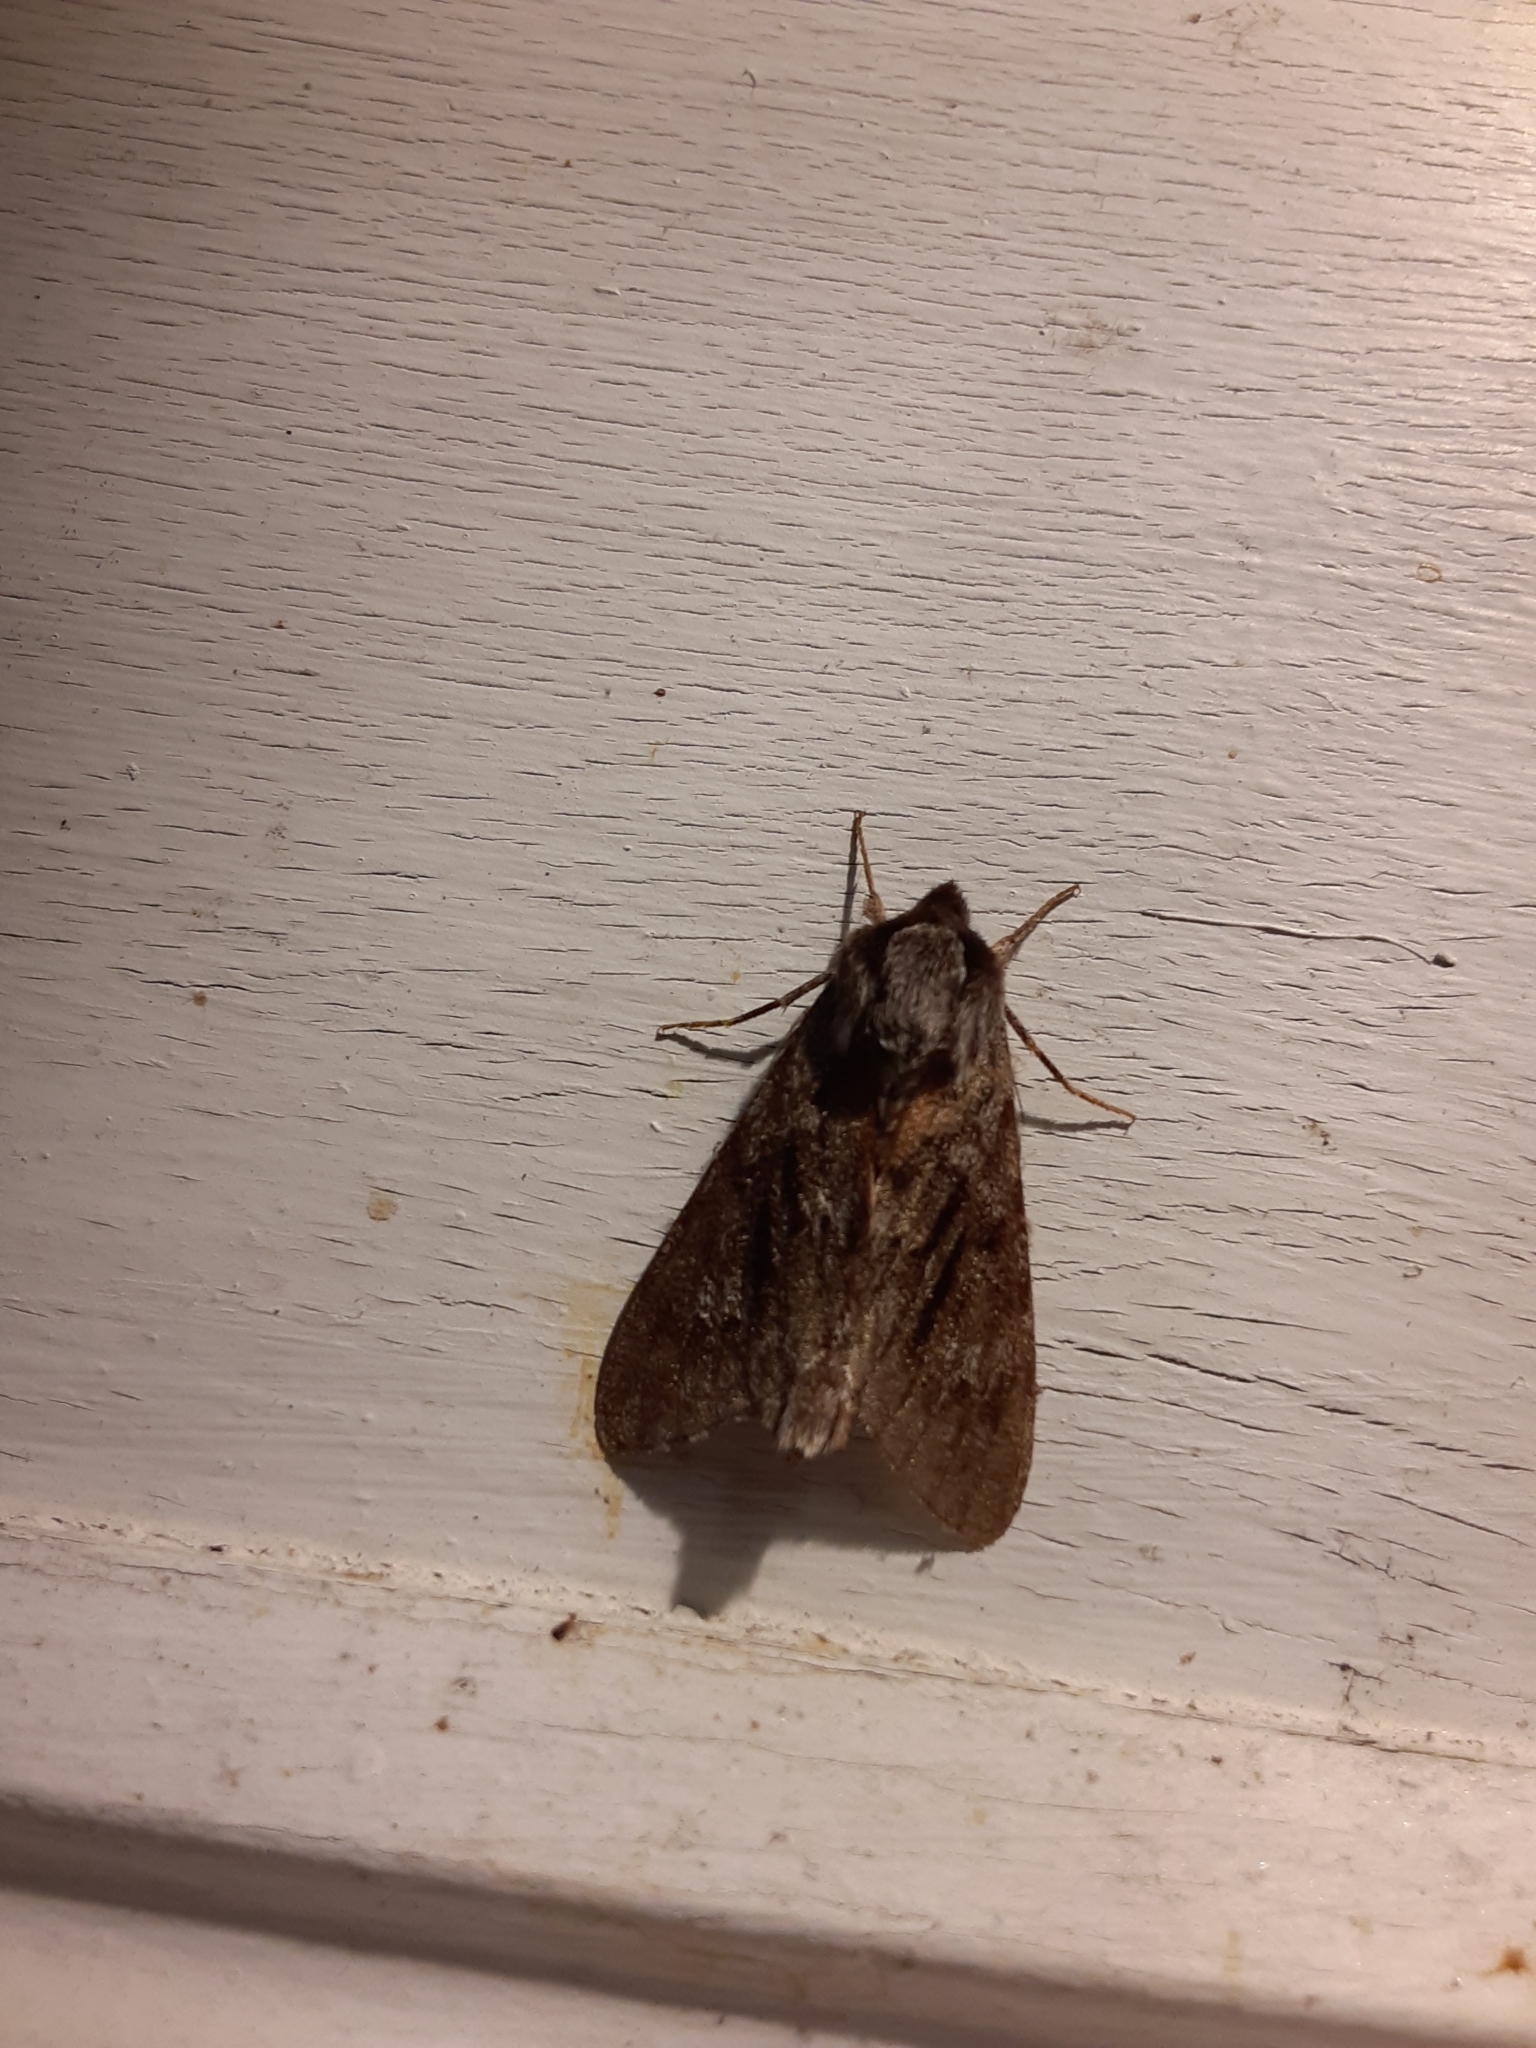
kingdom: Animalia
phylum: Arthropoda
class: Insecta
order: Lepidoptera
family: Sphingidae
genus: Lapara
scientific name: Lapara bombycoides
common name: Northern pine sphinx
